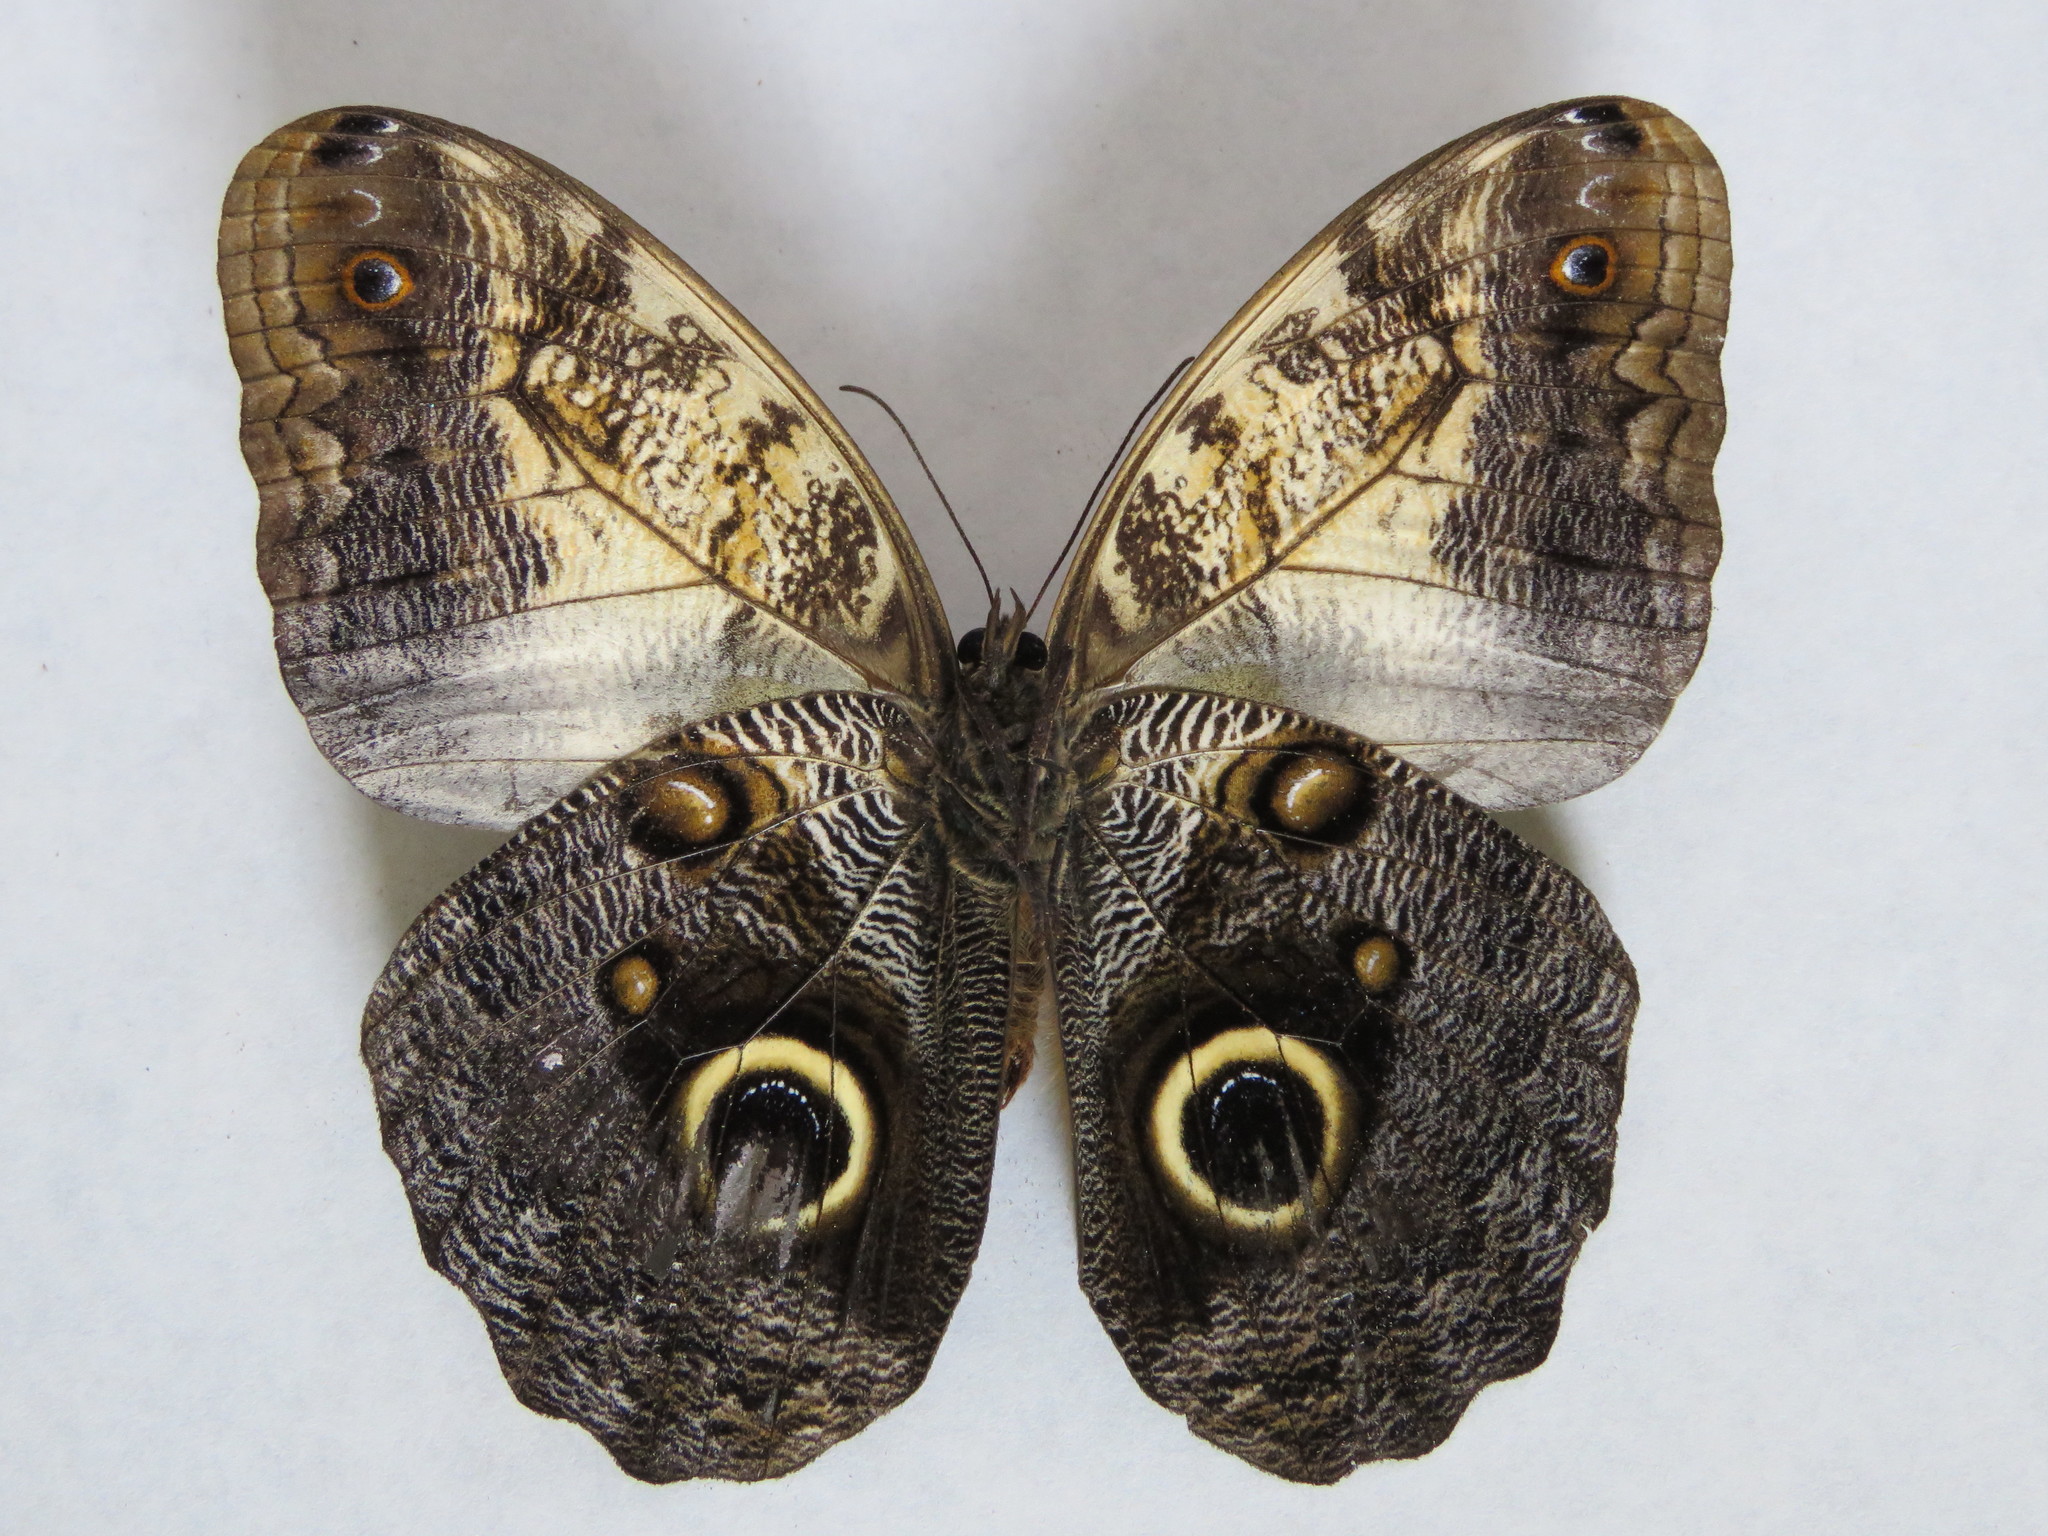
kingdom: Animalia
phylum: Arthropoda
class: Insecta
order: Lepidoptera
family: Nymphalidae
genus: Caligo
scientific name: Caligo telamonius
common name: Pale owl-butterfly
